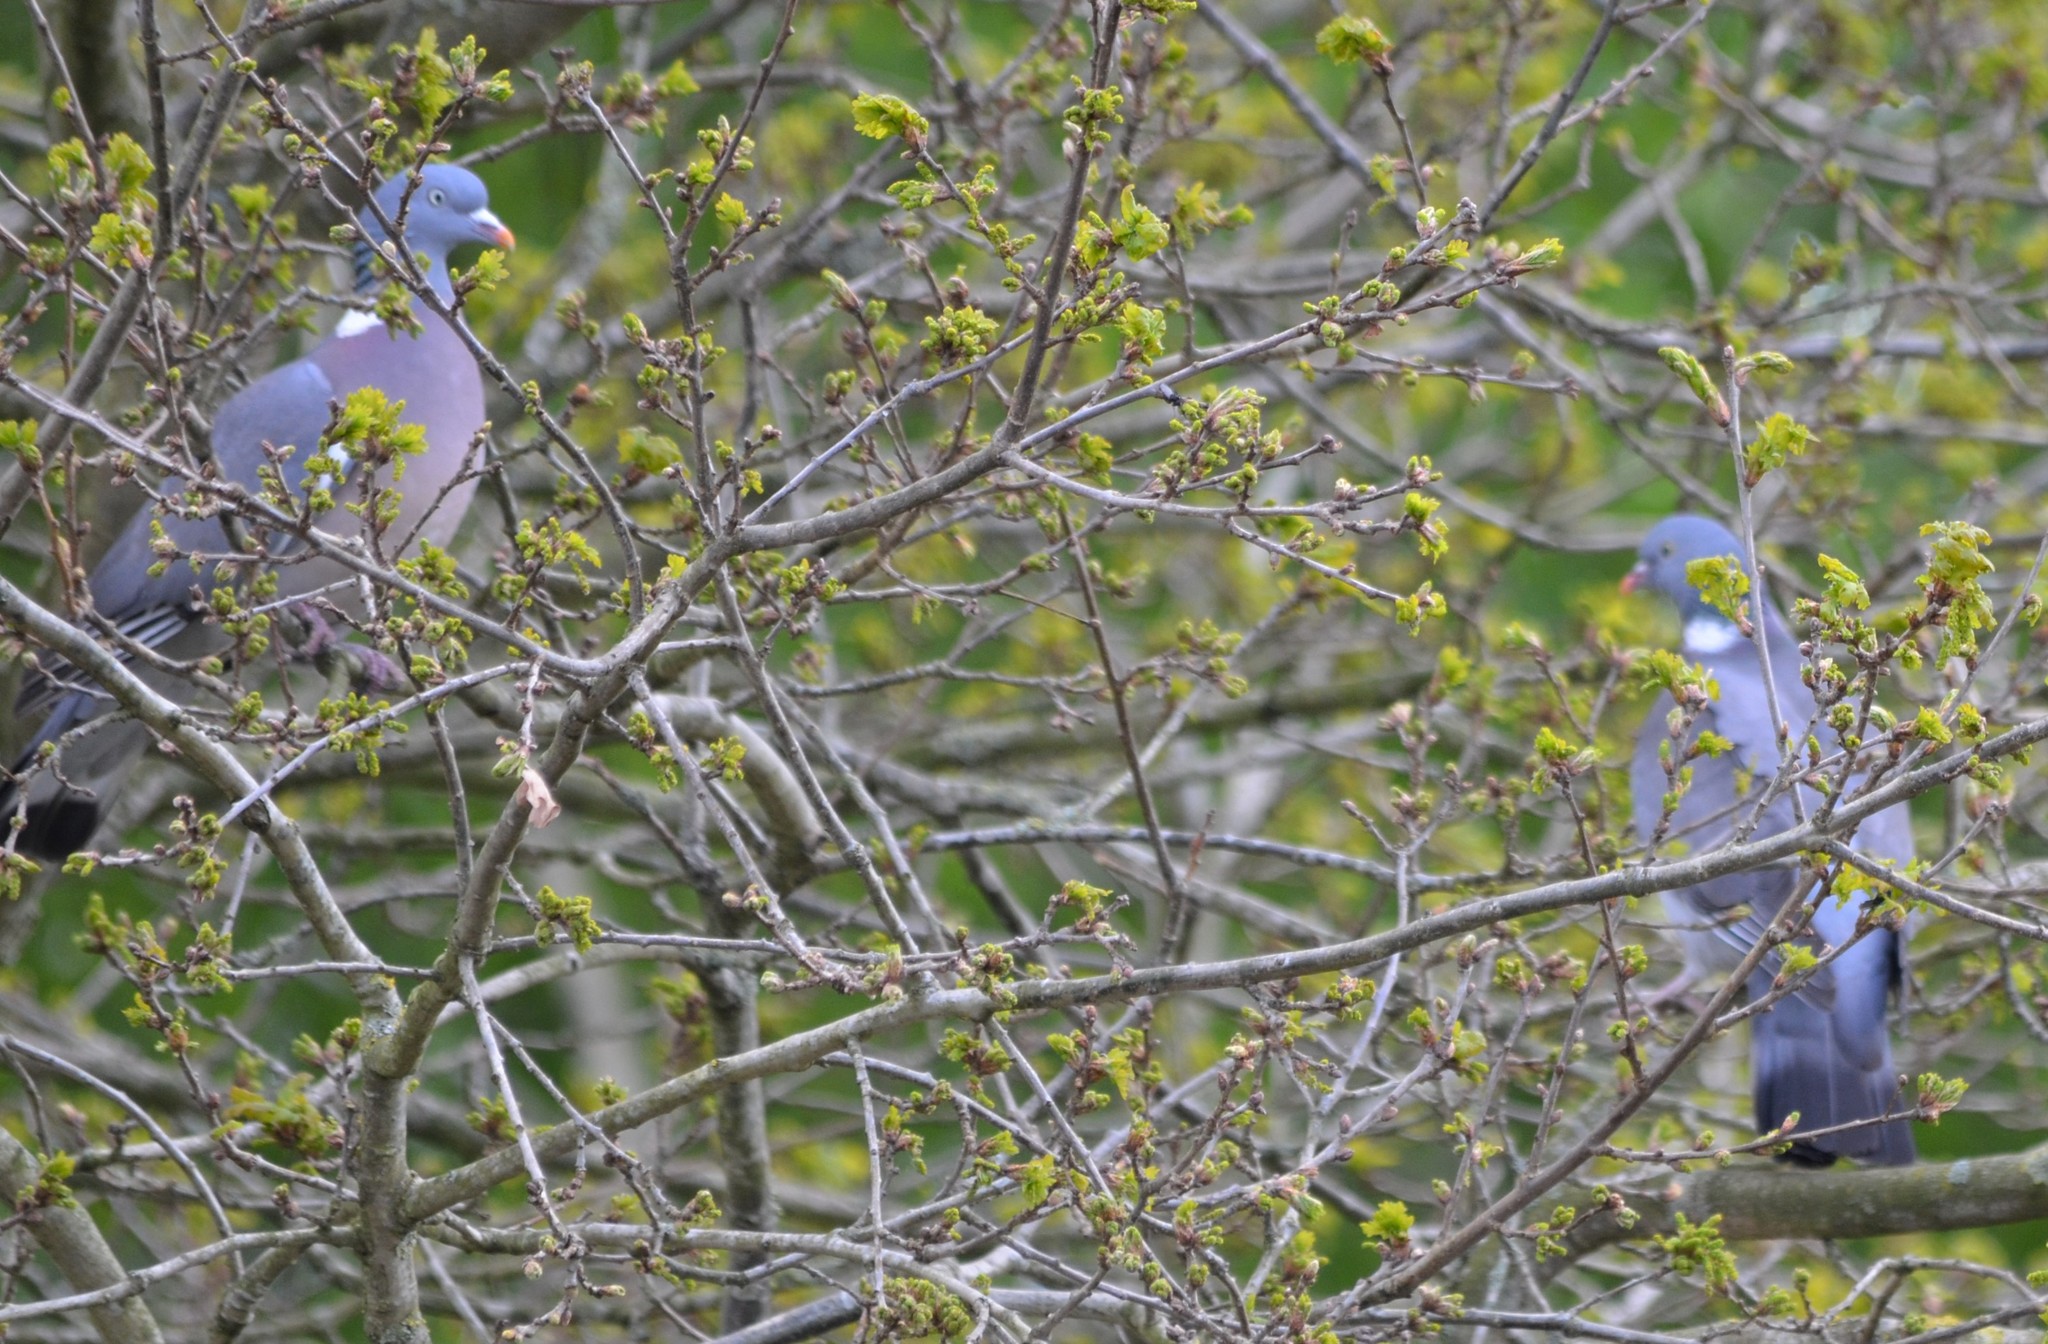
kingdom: Animalia
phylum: Chordata
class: Aves
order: Columbiformes
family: Columbidae
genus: Columba
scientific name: Columba palumbus
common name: Common wood pigeon
